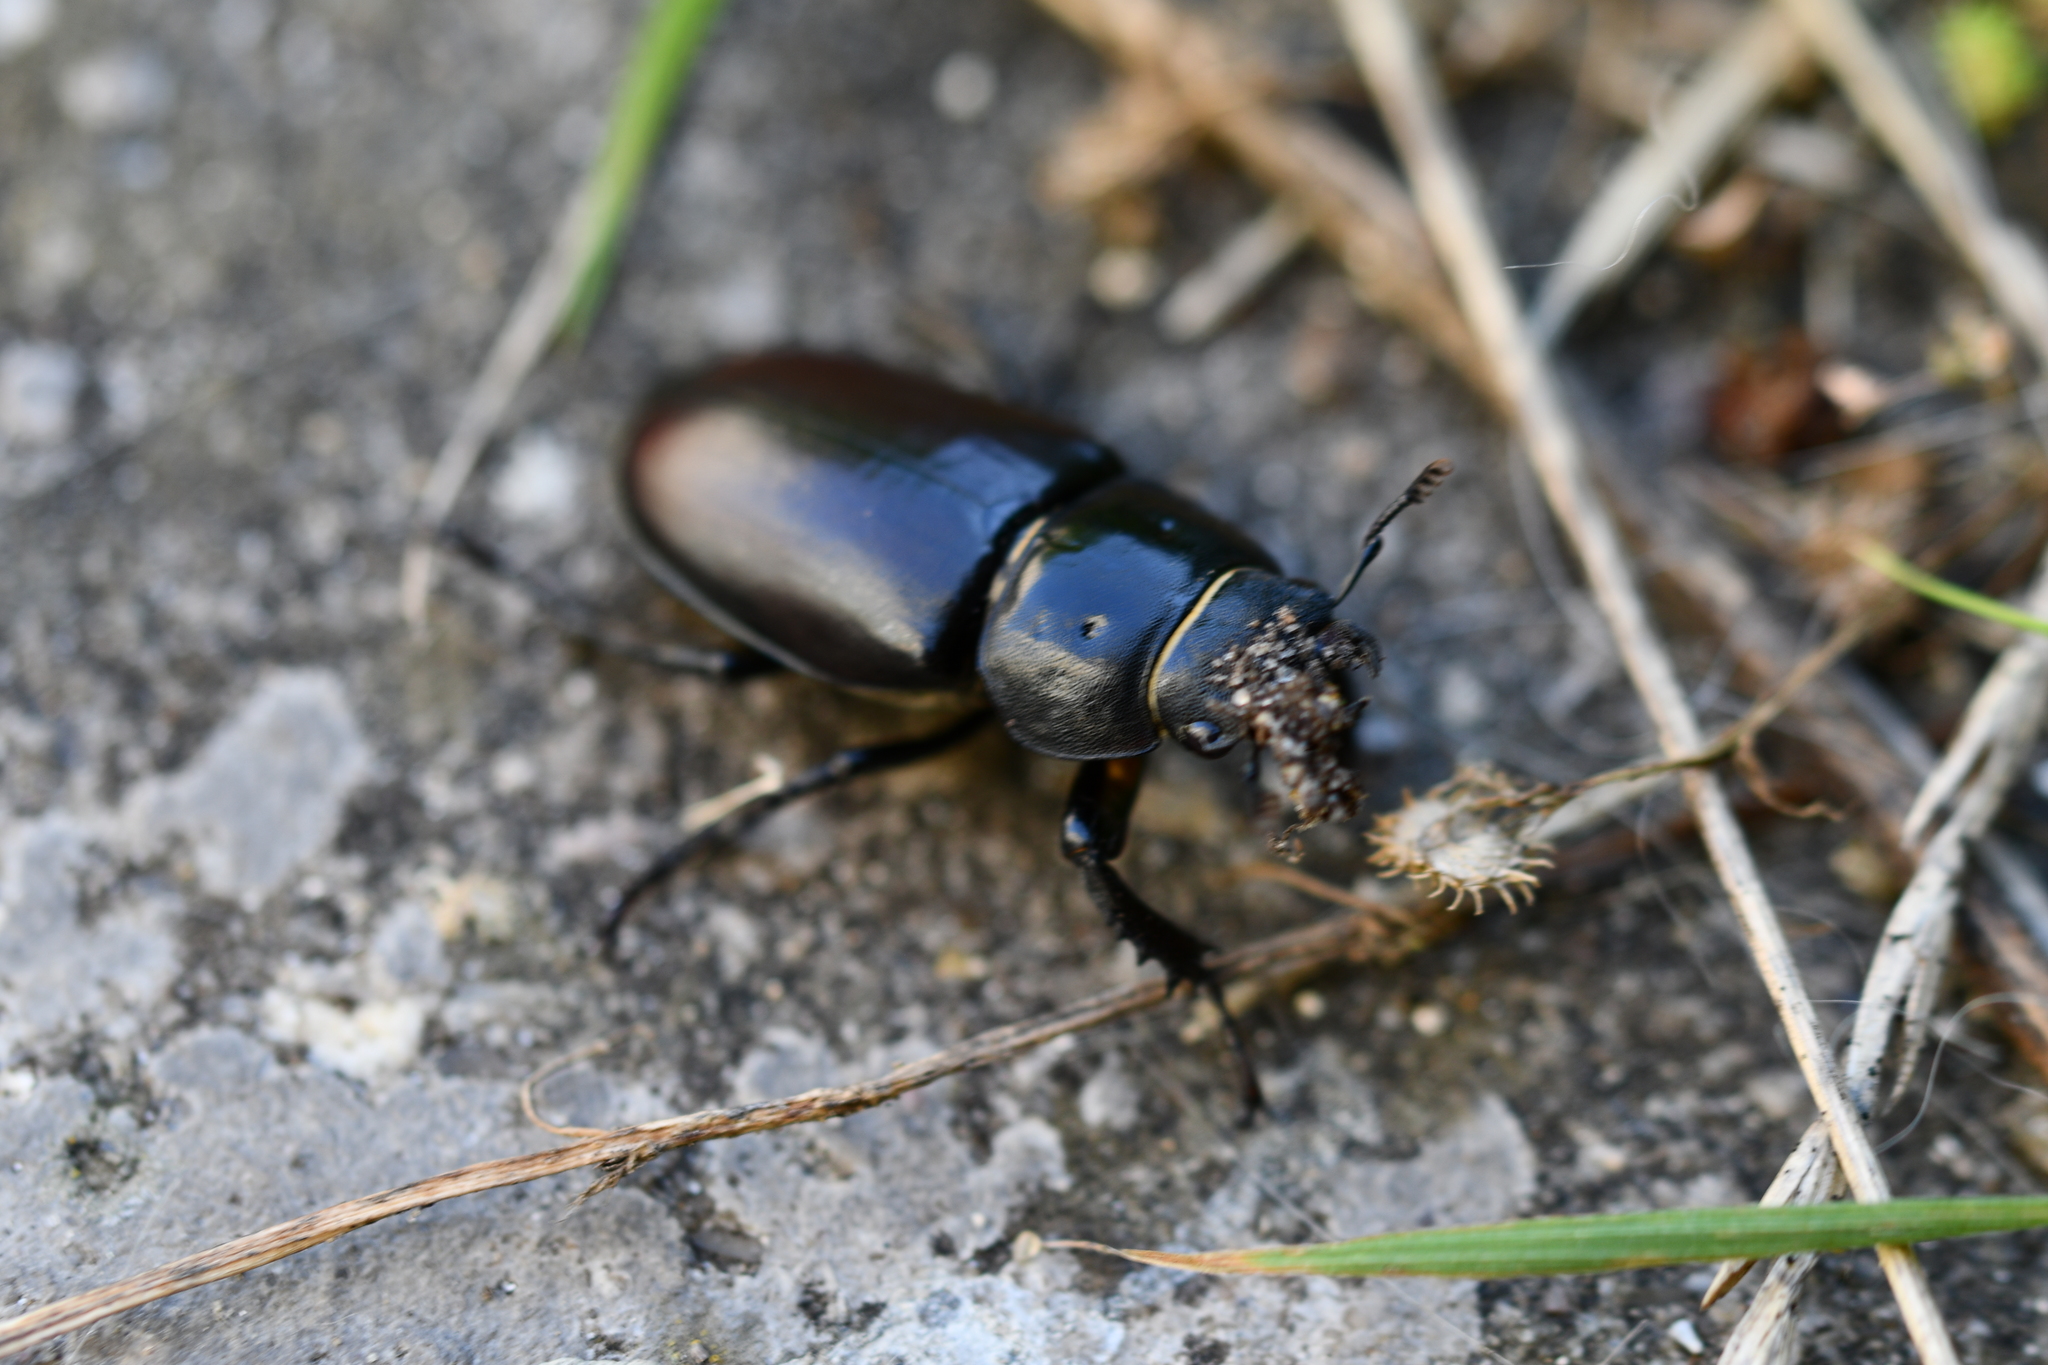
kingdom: Animalia
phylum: Arthropoda
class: Insecta
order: Coleoptera
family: Lucanidae
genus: Lucanus
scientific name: Lucanus cervus
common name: Stag beetle
